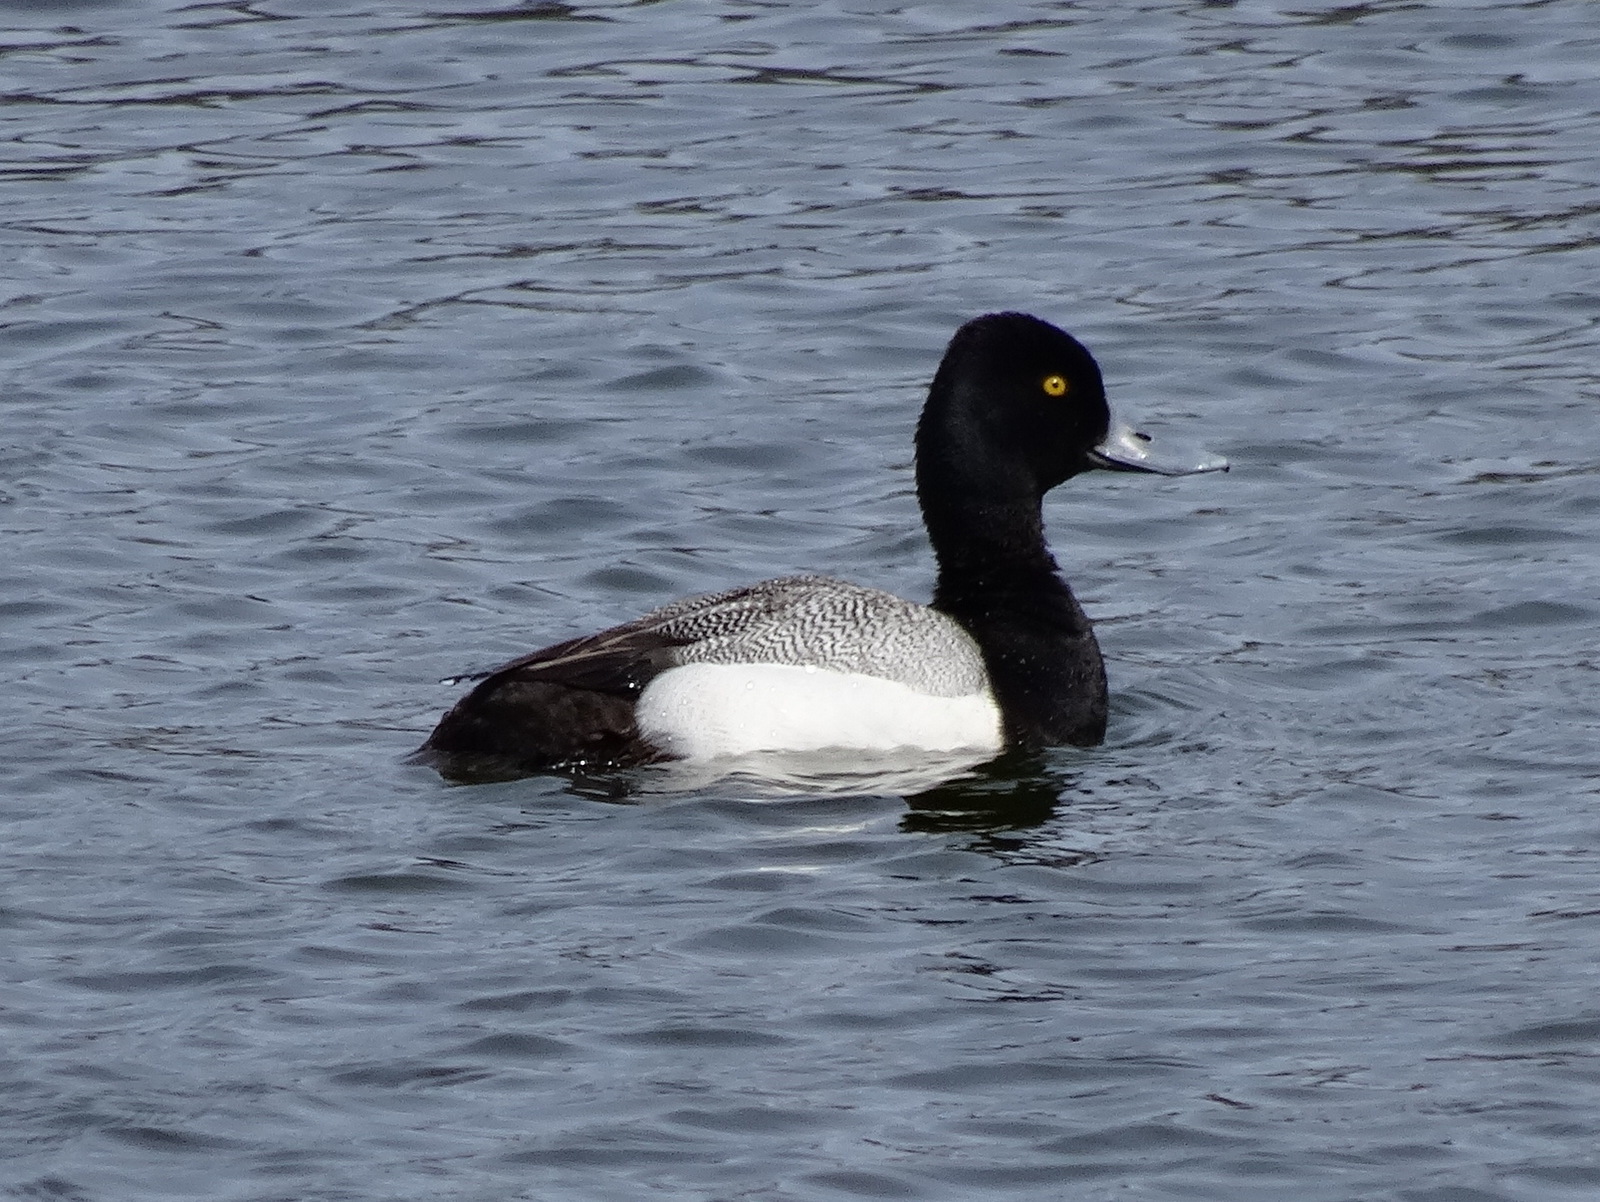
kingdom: Animalia
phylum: Chordata
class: Aves
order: Anseriformes
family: Anatidae
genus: Aythya
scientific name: Aythya affinis
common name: Lesser scaup
